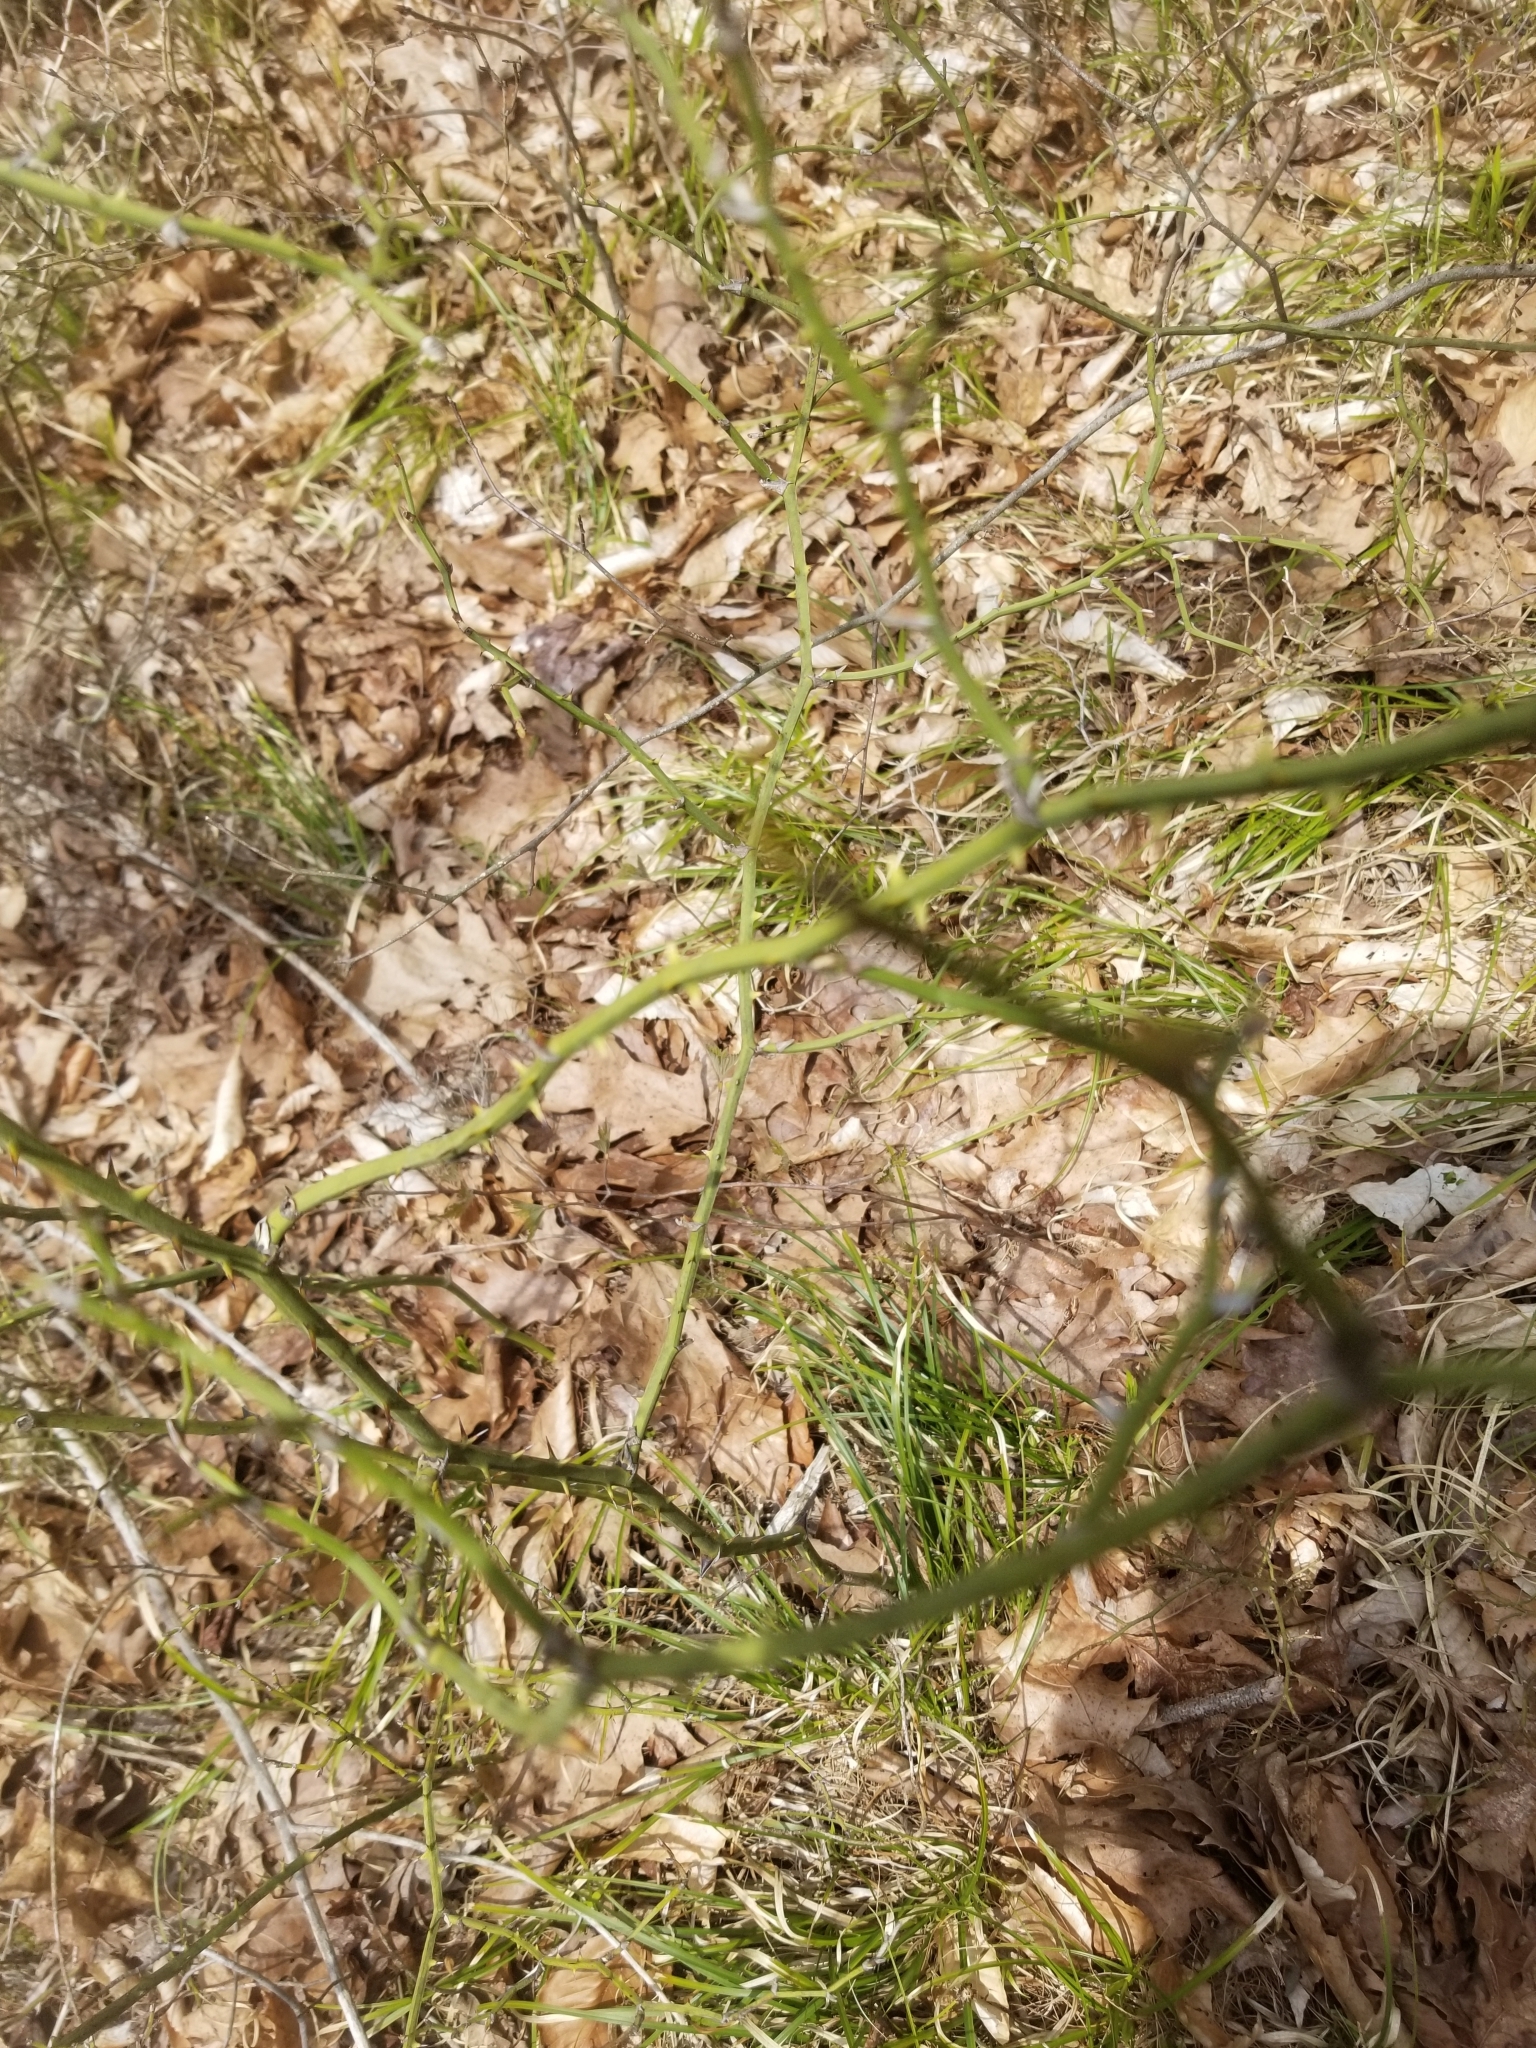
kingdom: Plantae
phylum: Tracheophyta
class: Liliopsida
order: Liliales
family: Smilacaceae
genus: Smilax
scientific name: Smilax rotundifolia
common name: Bullbriar
